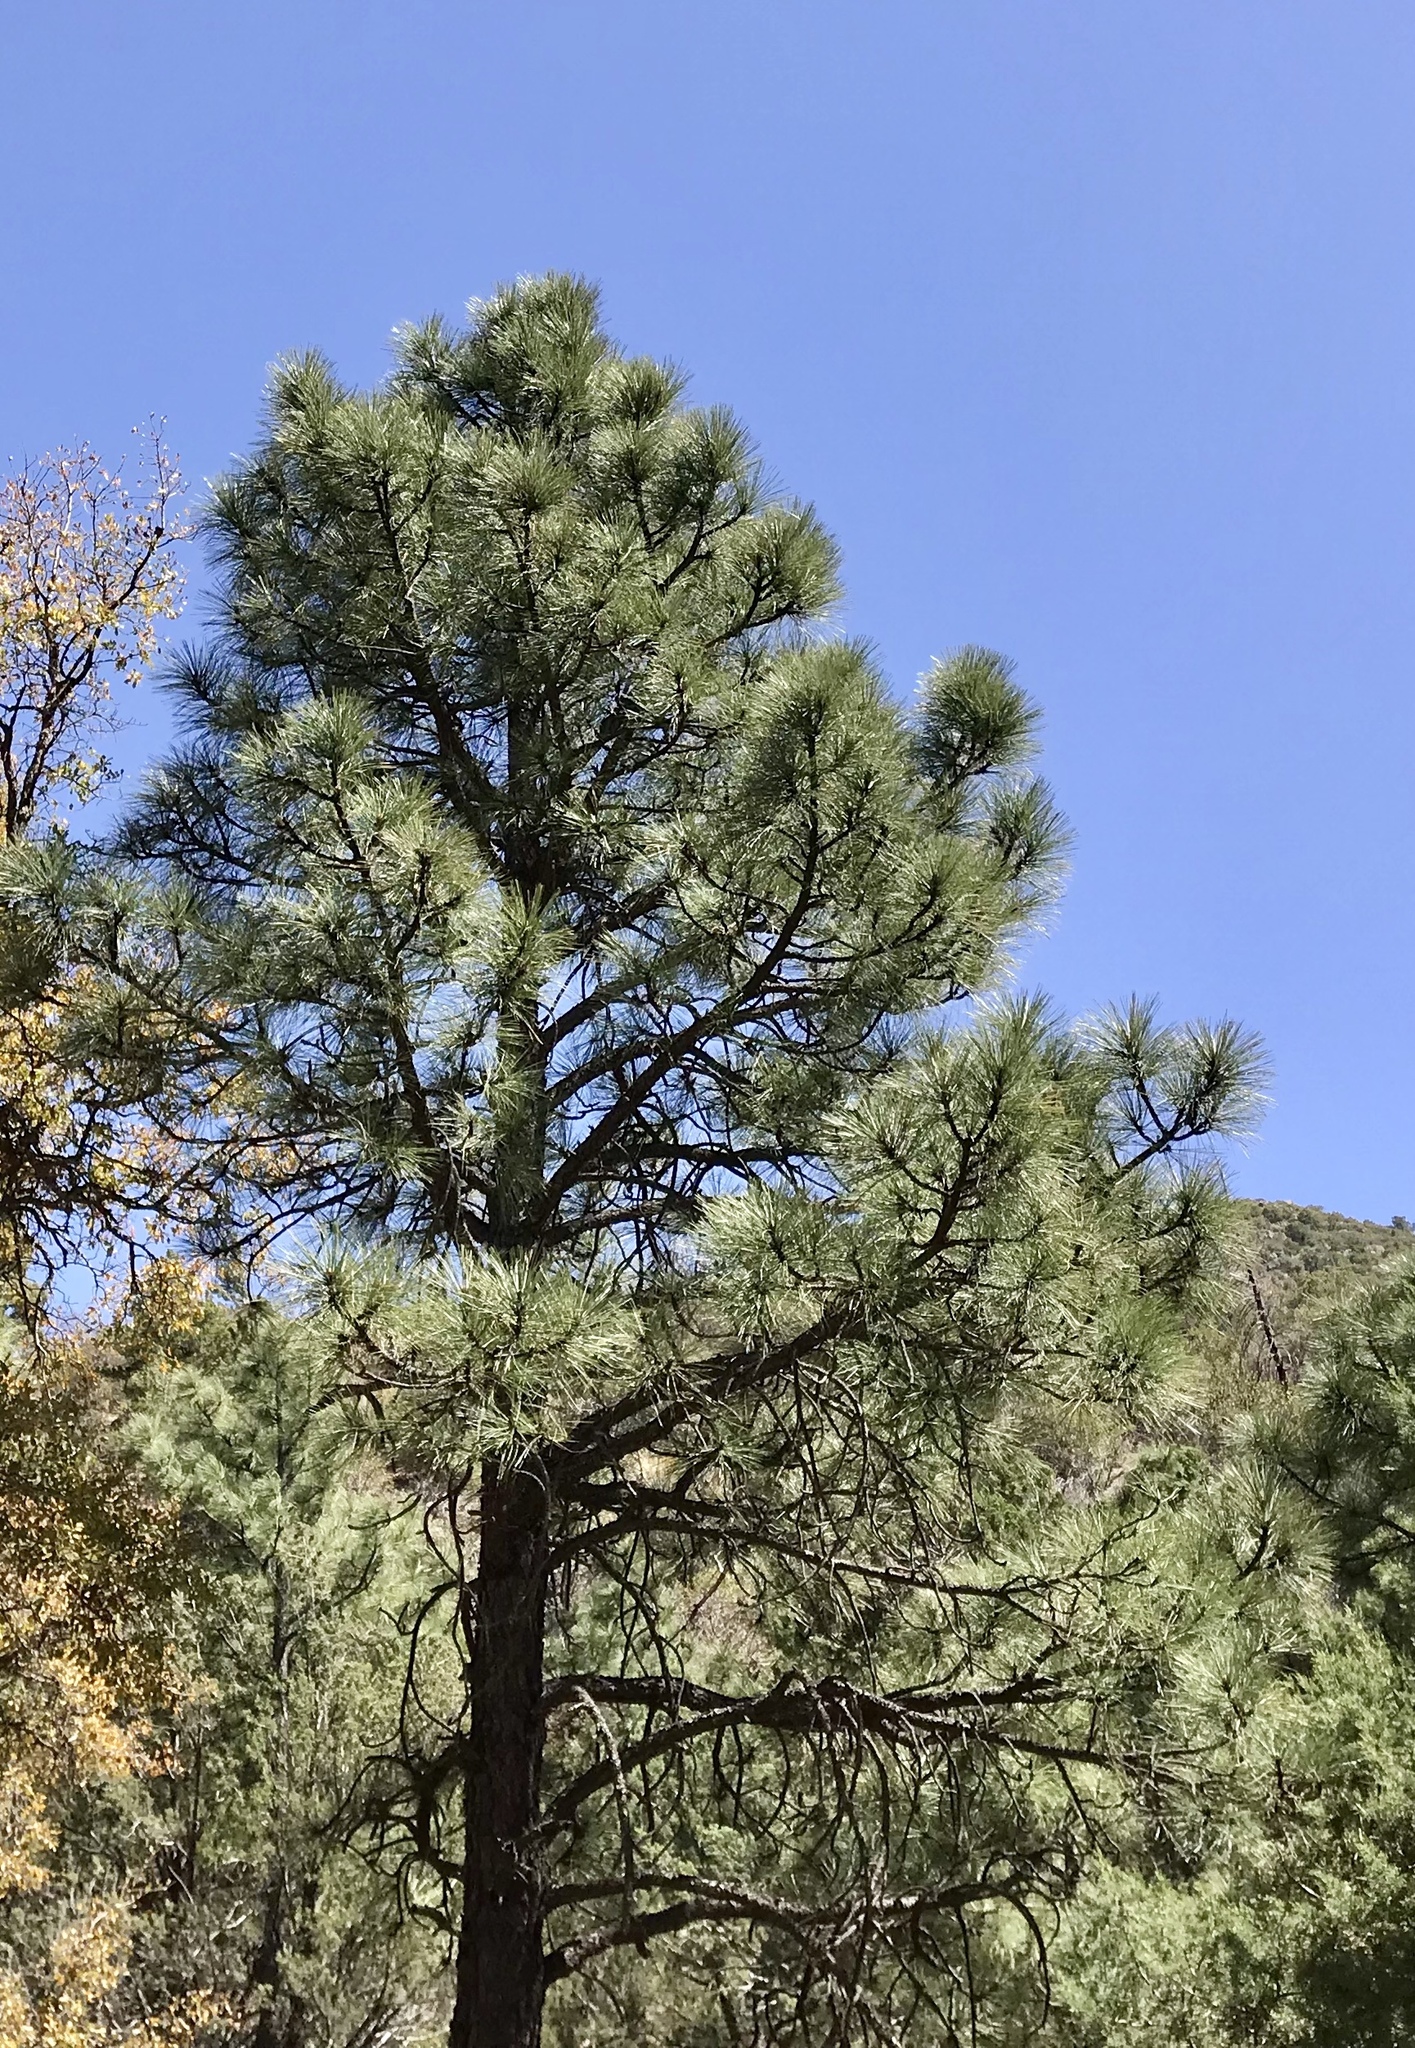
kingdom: Plantae
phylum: Tracheophyta
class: Pinopsida
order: Pinales
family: Pinaceae
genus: Pinus
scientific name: Pinus engelmannii
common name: Apache pine
